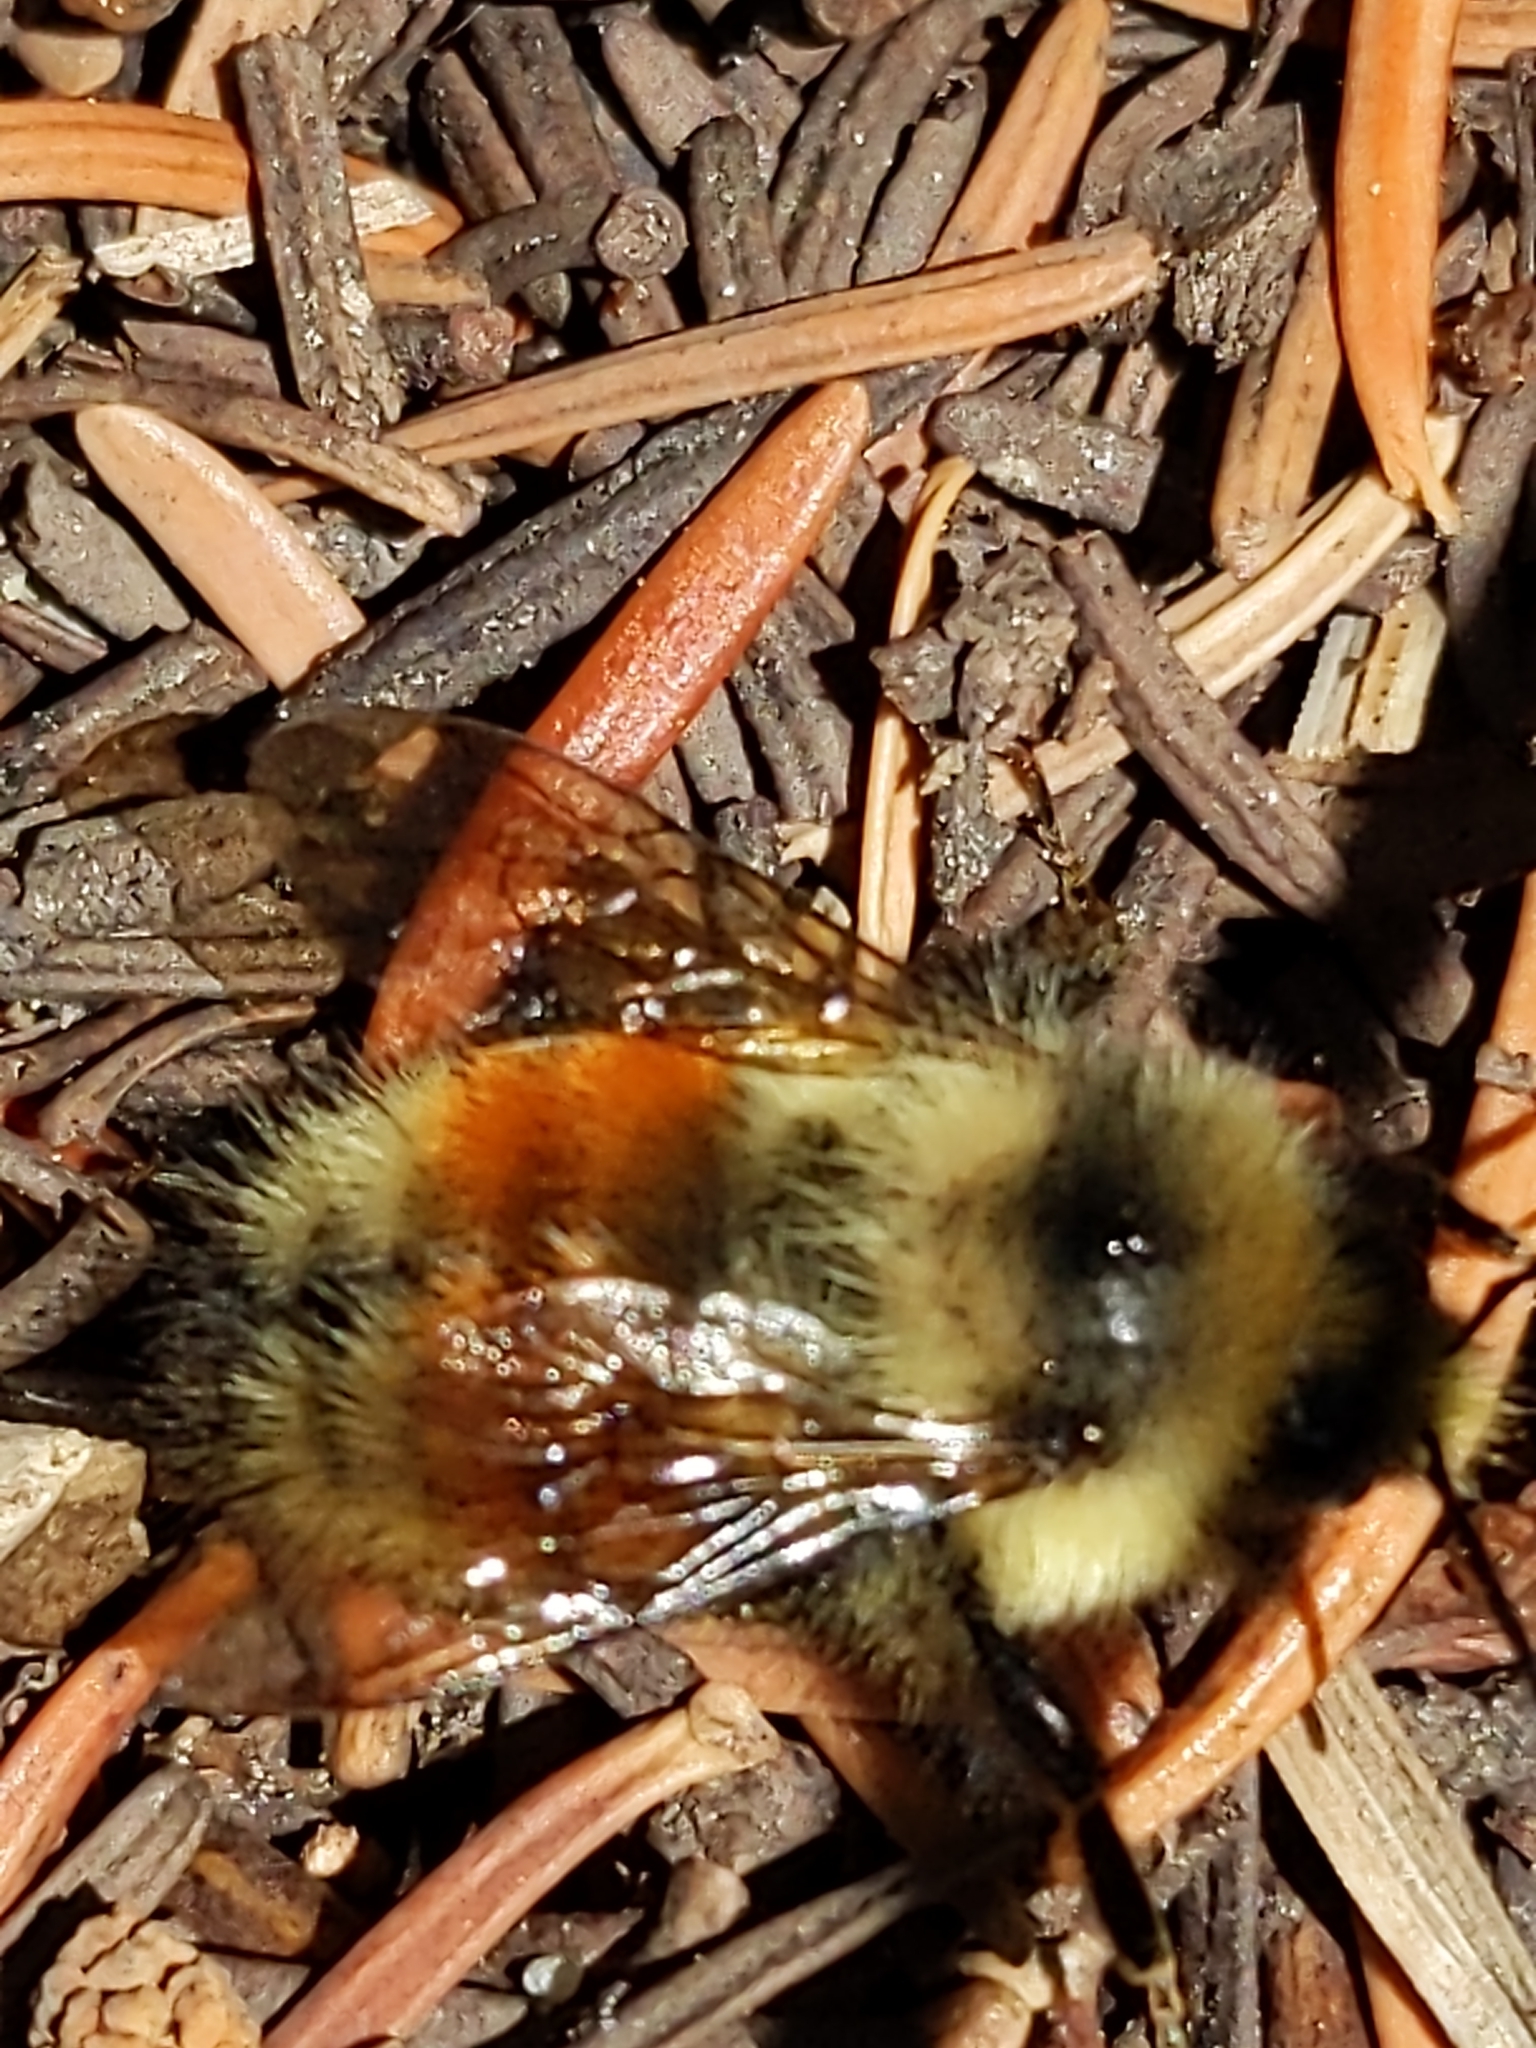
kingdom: Animalia
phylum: Arthropoda
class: Insecta
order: Hymenoptera
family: Apidae
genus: Bombus
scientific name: Bombus sylvicola
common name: Forest bumble bee
